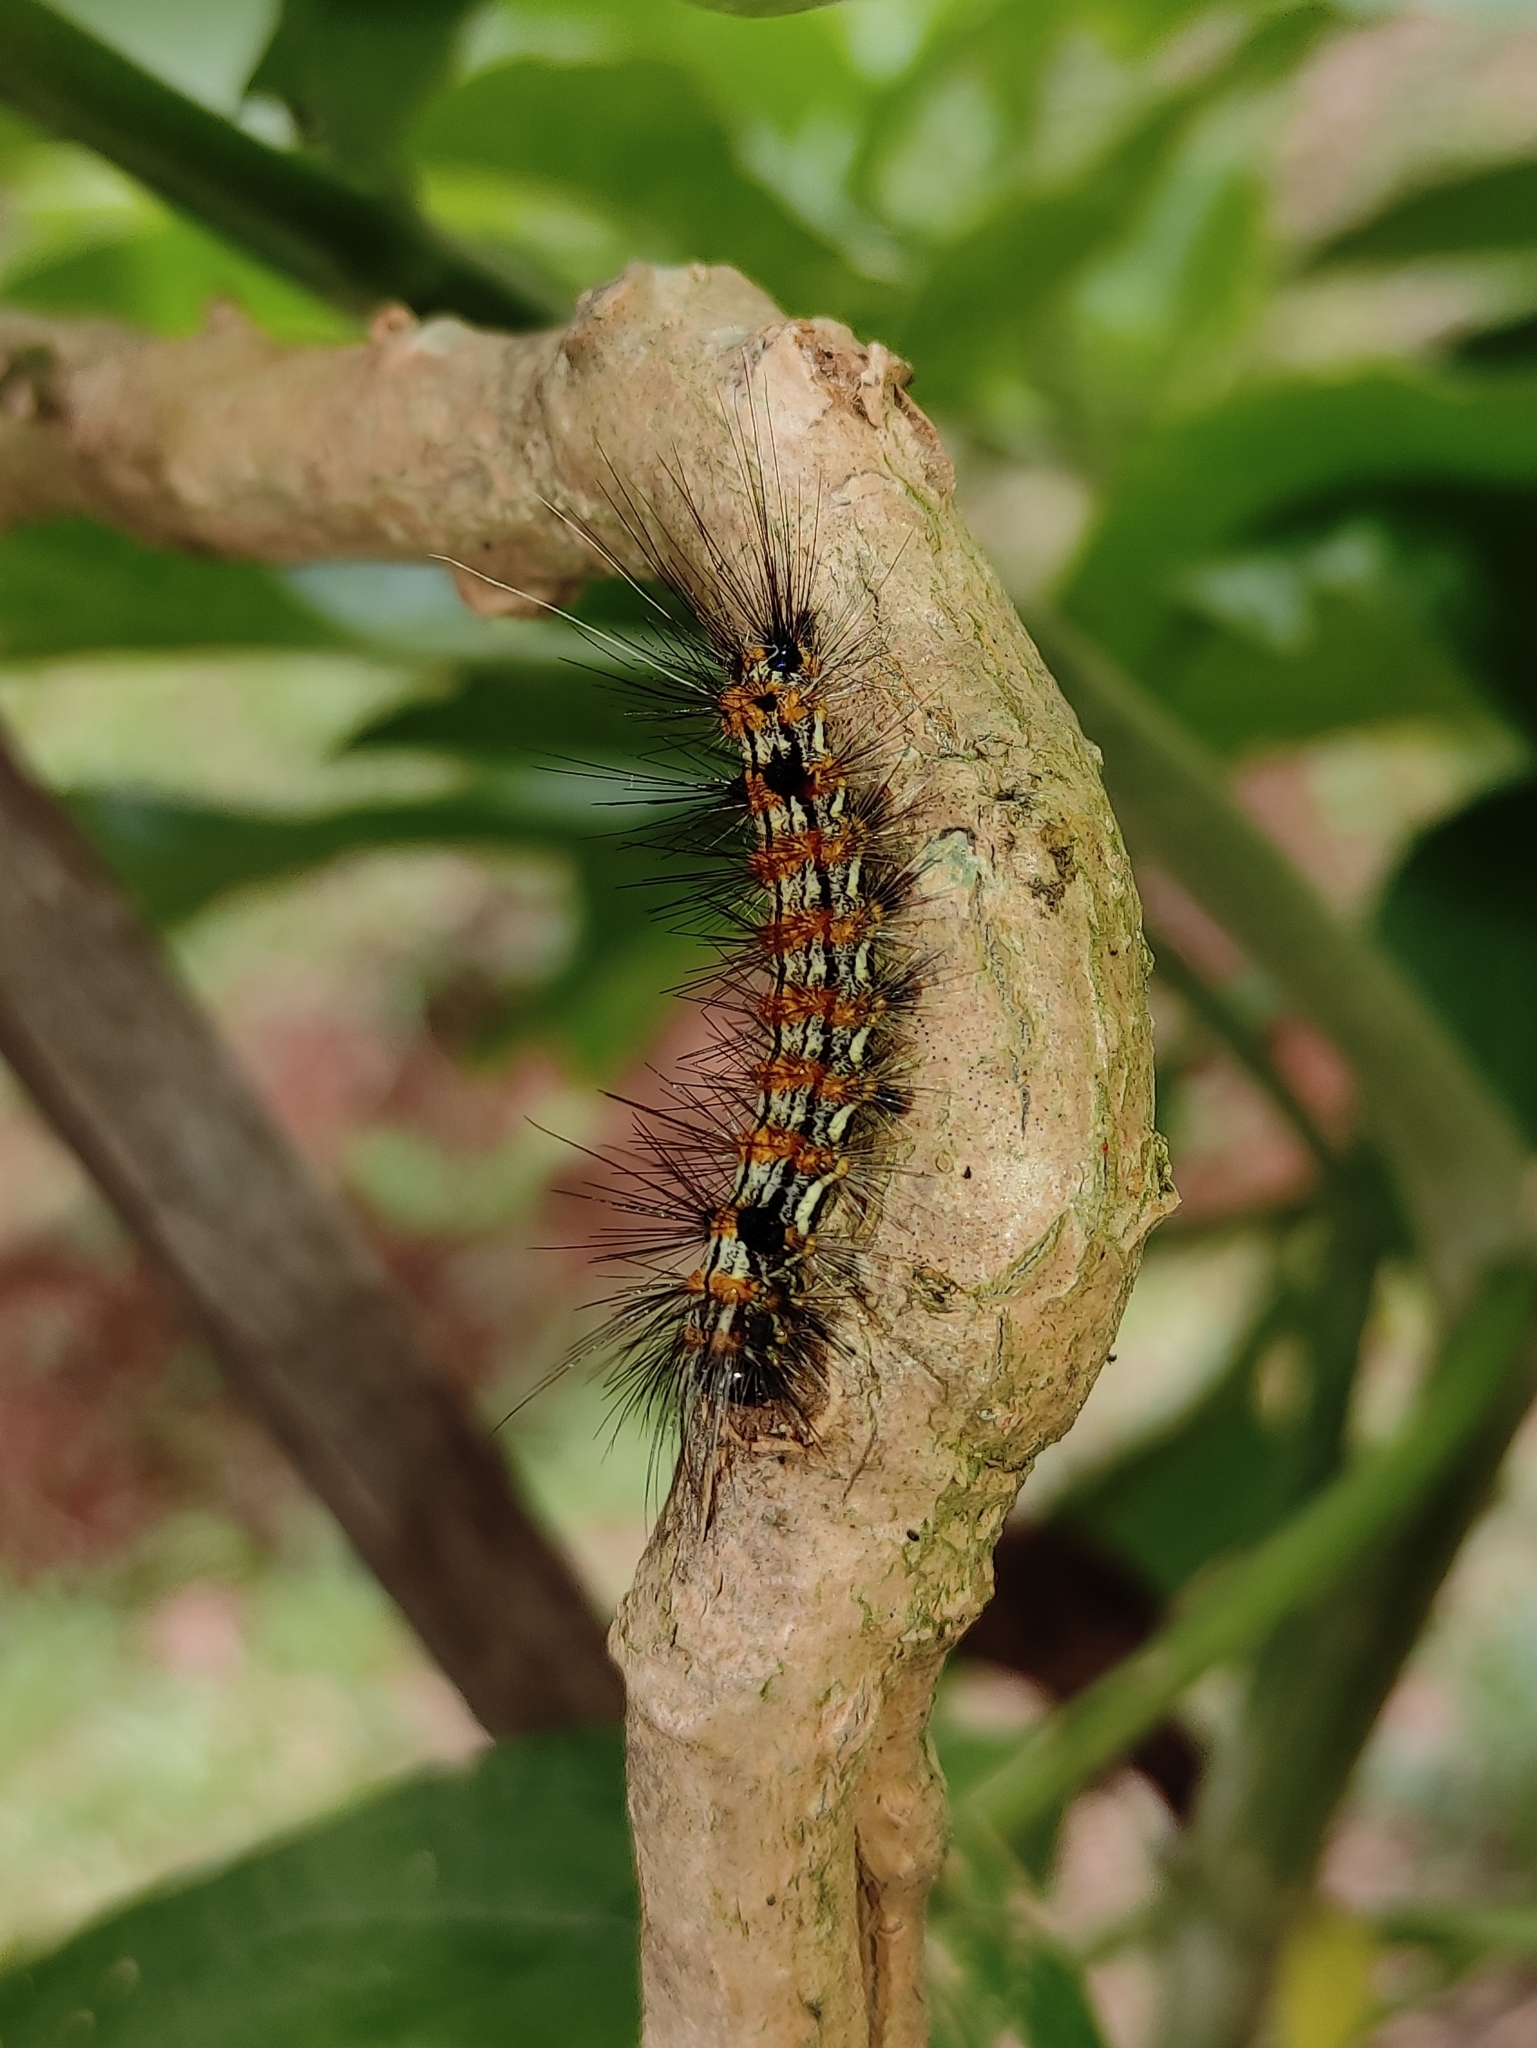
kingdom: Animalia
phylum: Arthropoda
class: Insecta
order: Lepidoptera
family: Erebidae
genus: Dysschema
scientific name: Dysschema sacrifica
